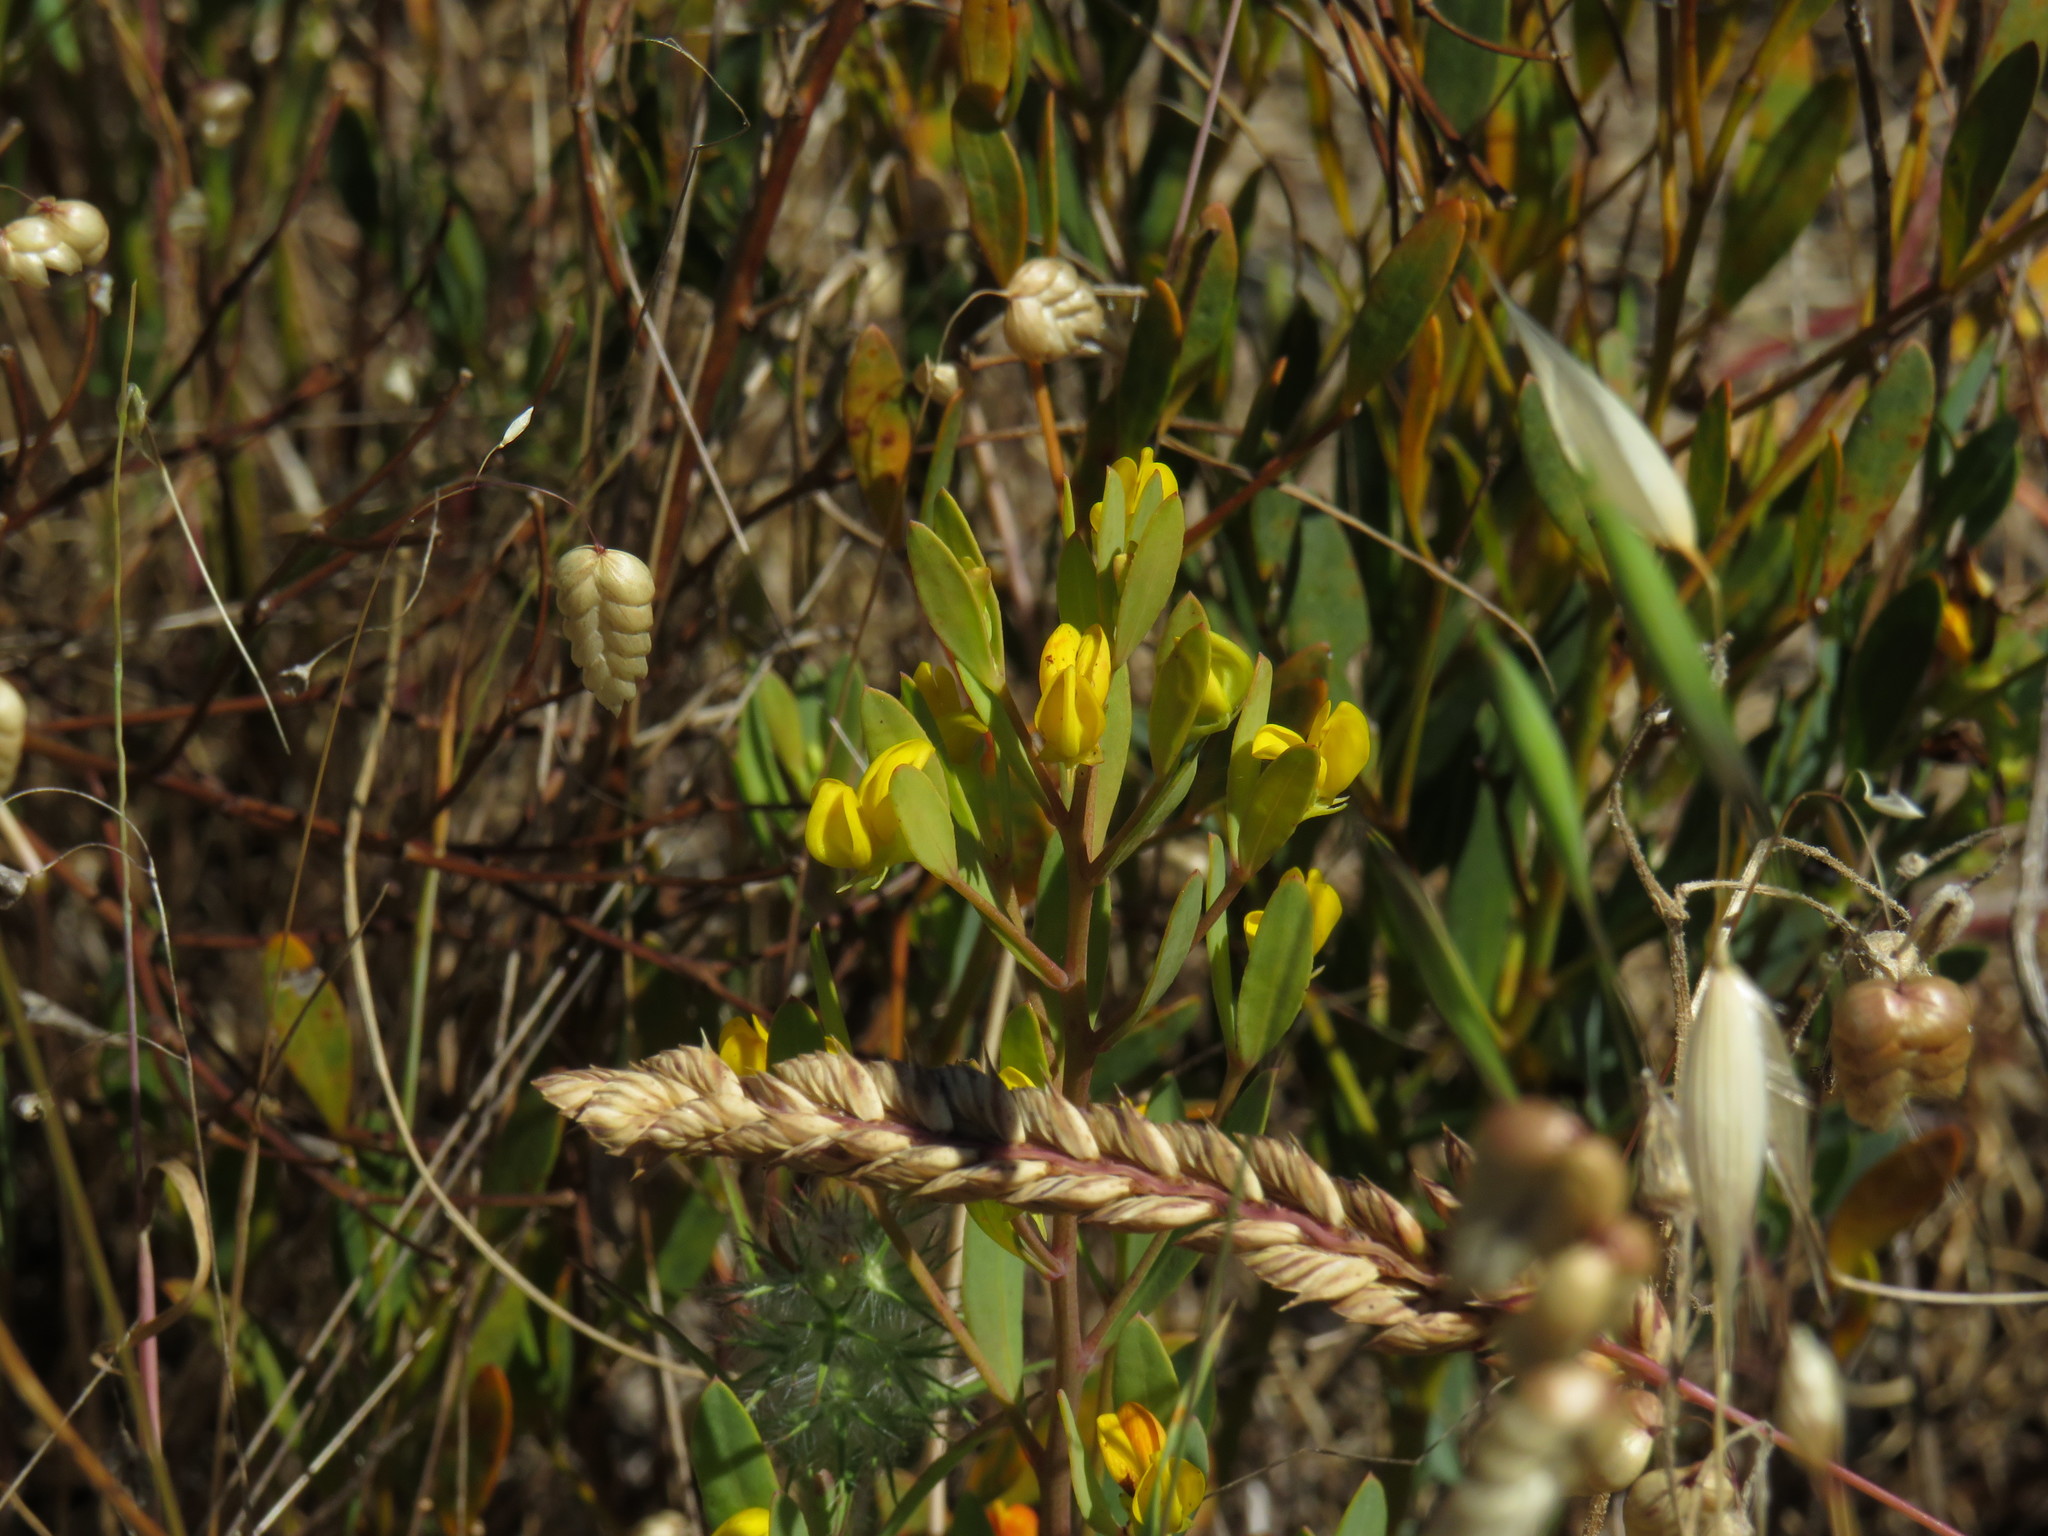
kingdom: Plantae
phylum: Tracheophyta
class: Magnoliopsida
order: Fabales
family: Fabaceae
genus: Rafnia
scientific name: Rafnia capensis
